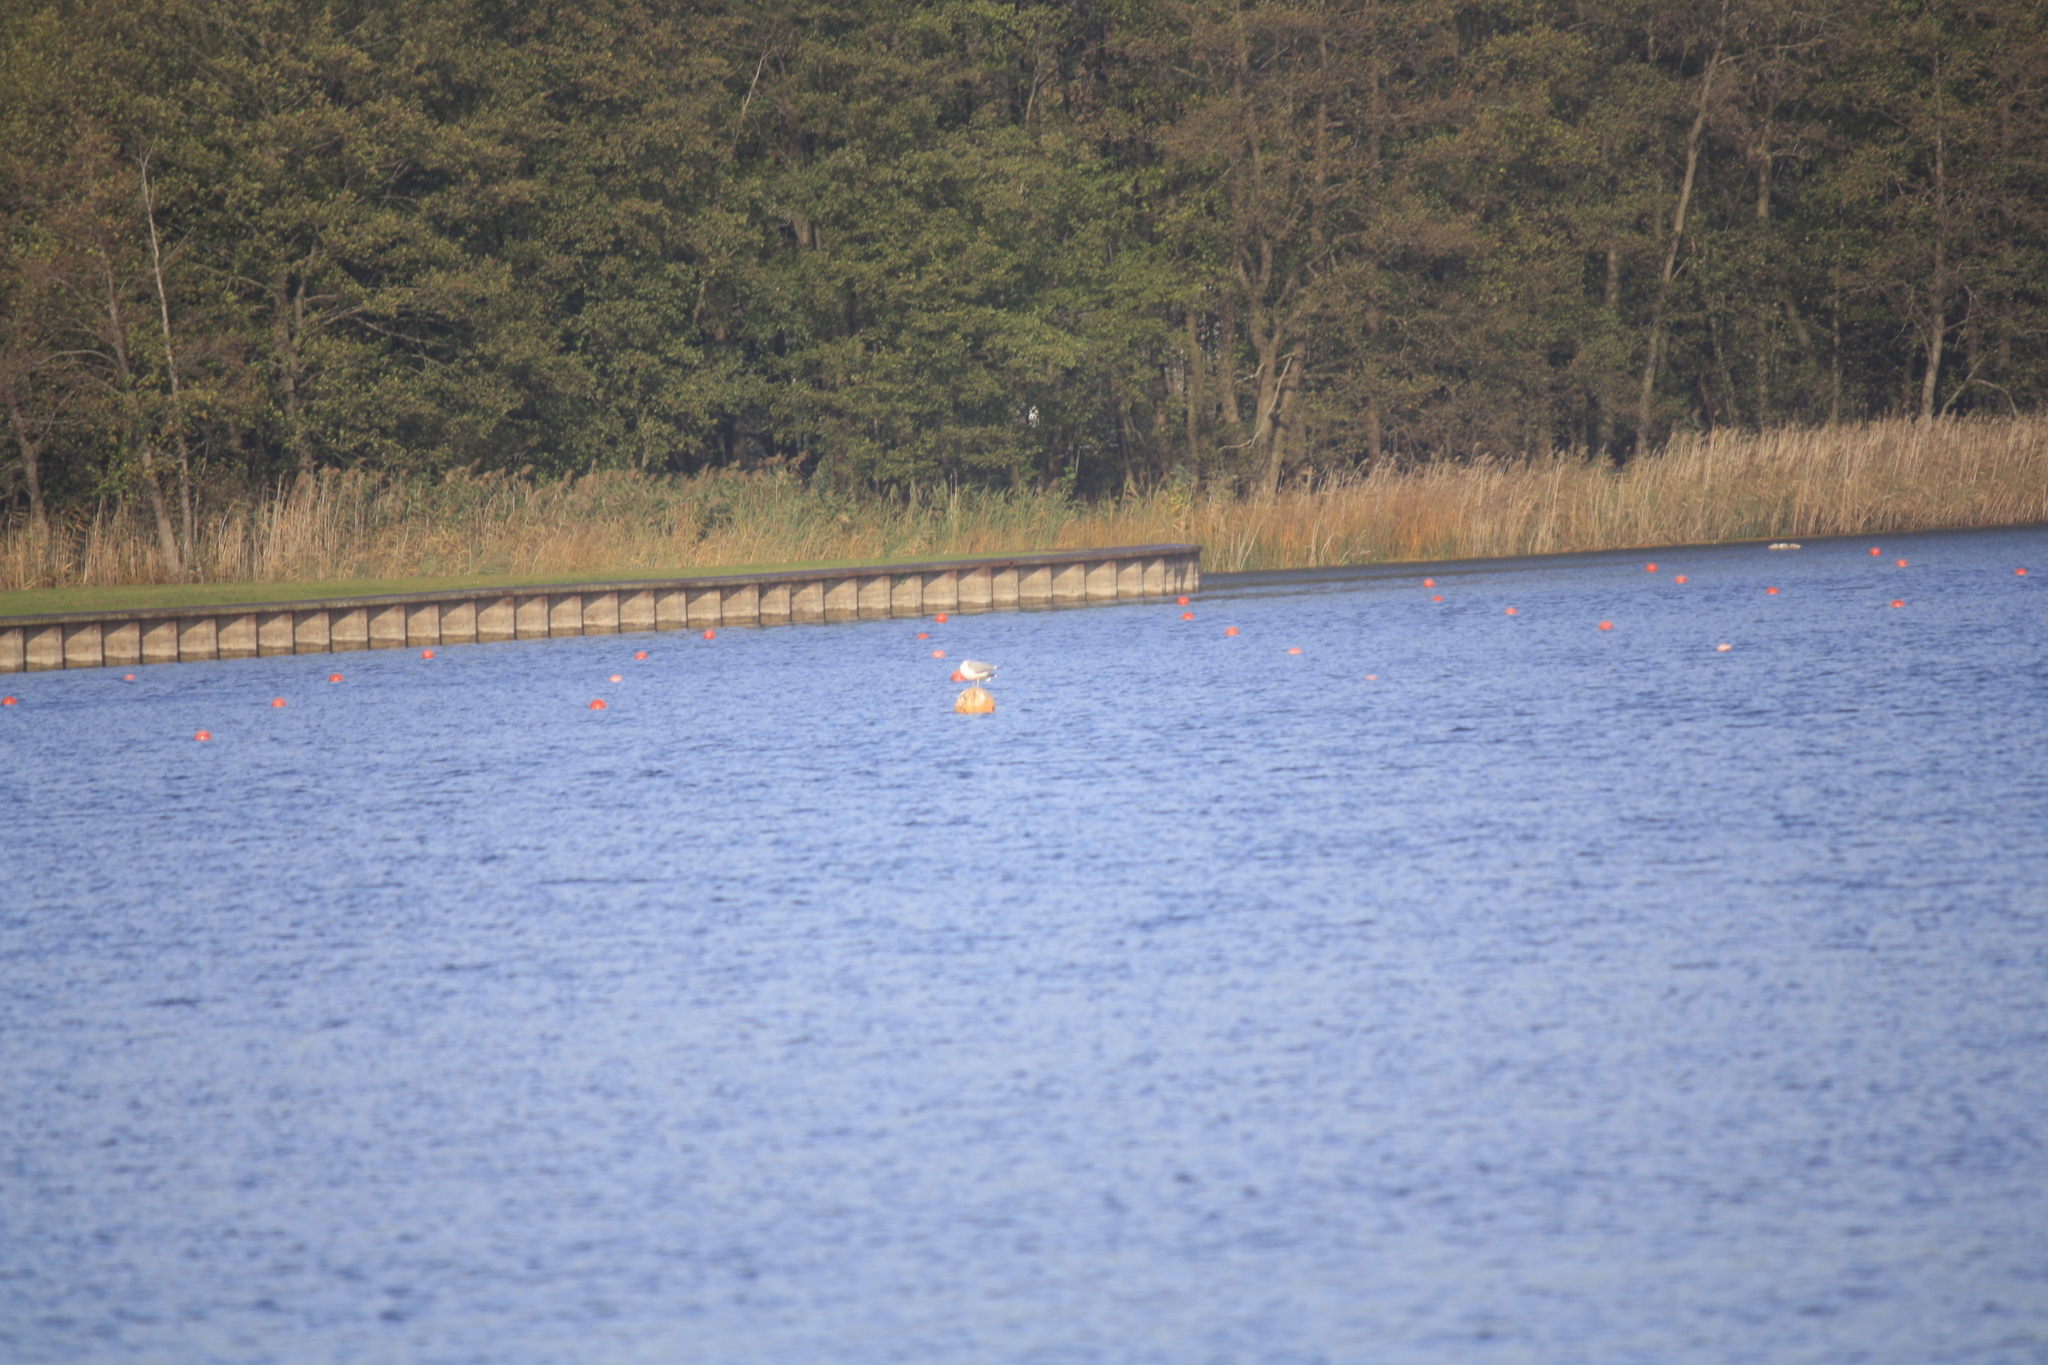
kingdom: Animalia
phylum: Chordata
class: Aves
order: Charadriiformes
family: Laridae
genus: Larus
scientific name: Larus
